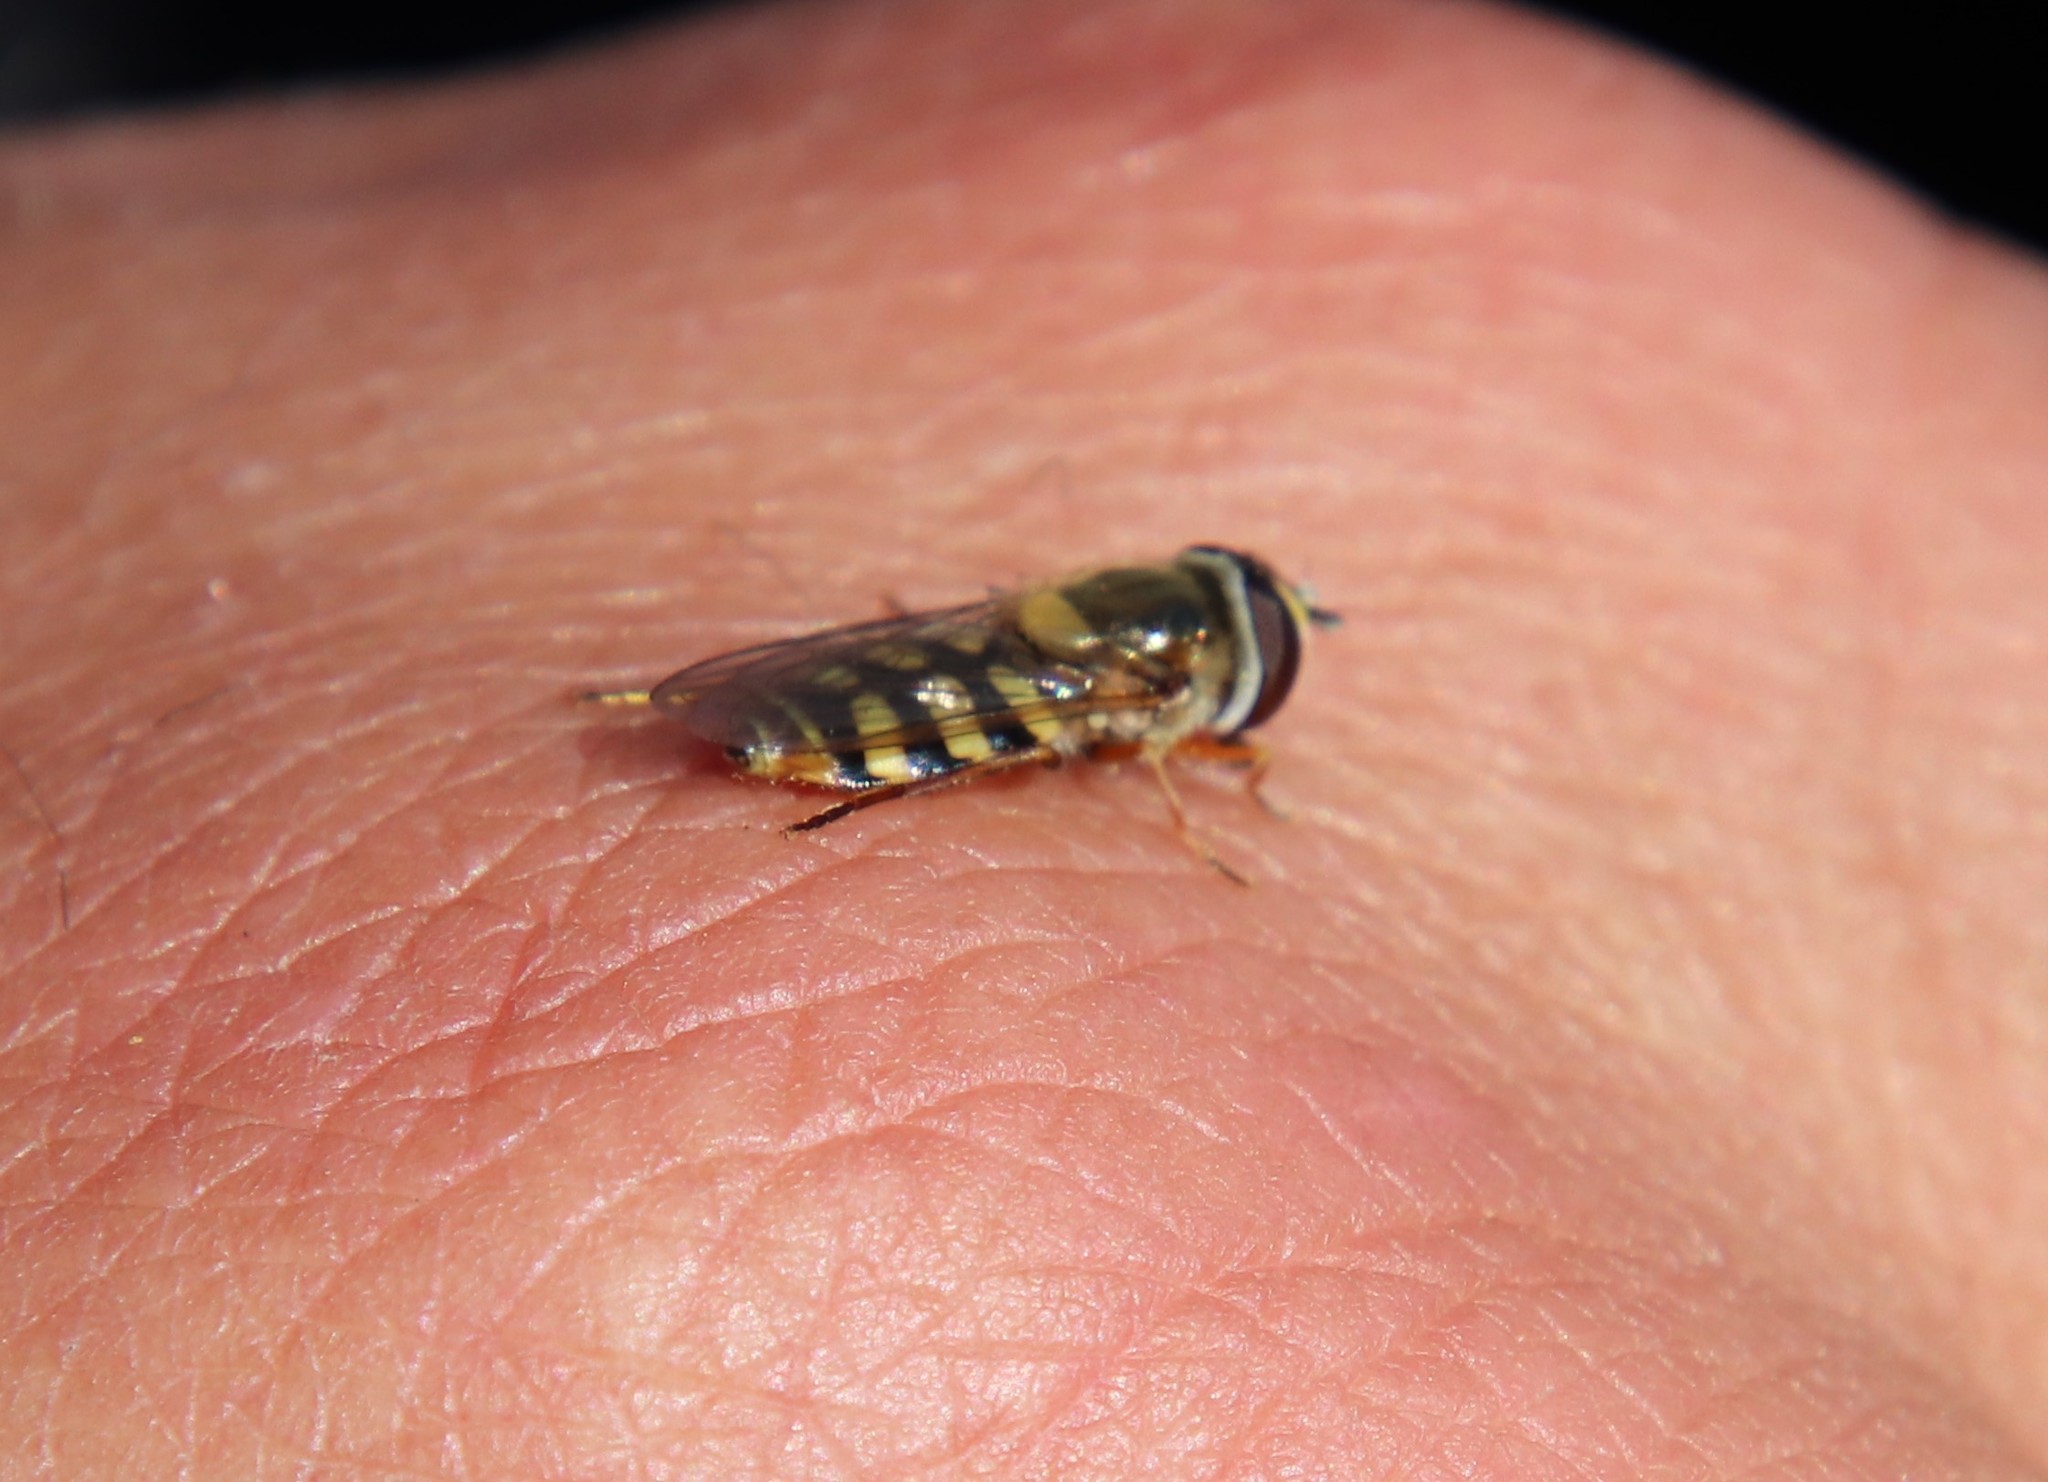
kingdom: Animalia
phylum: Arthropoda
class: Insecta
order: Diptera
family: Syrphidae
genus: Eupeodes
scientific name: Eupeodes corollae
